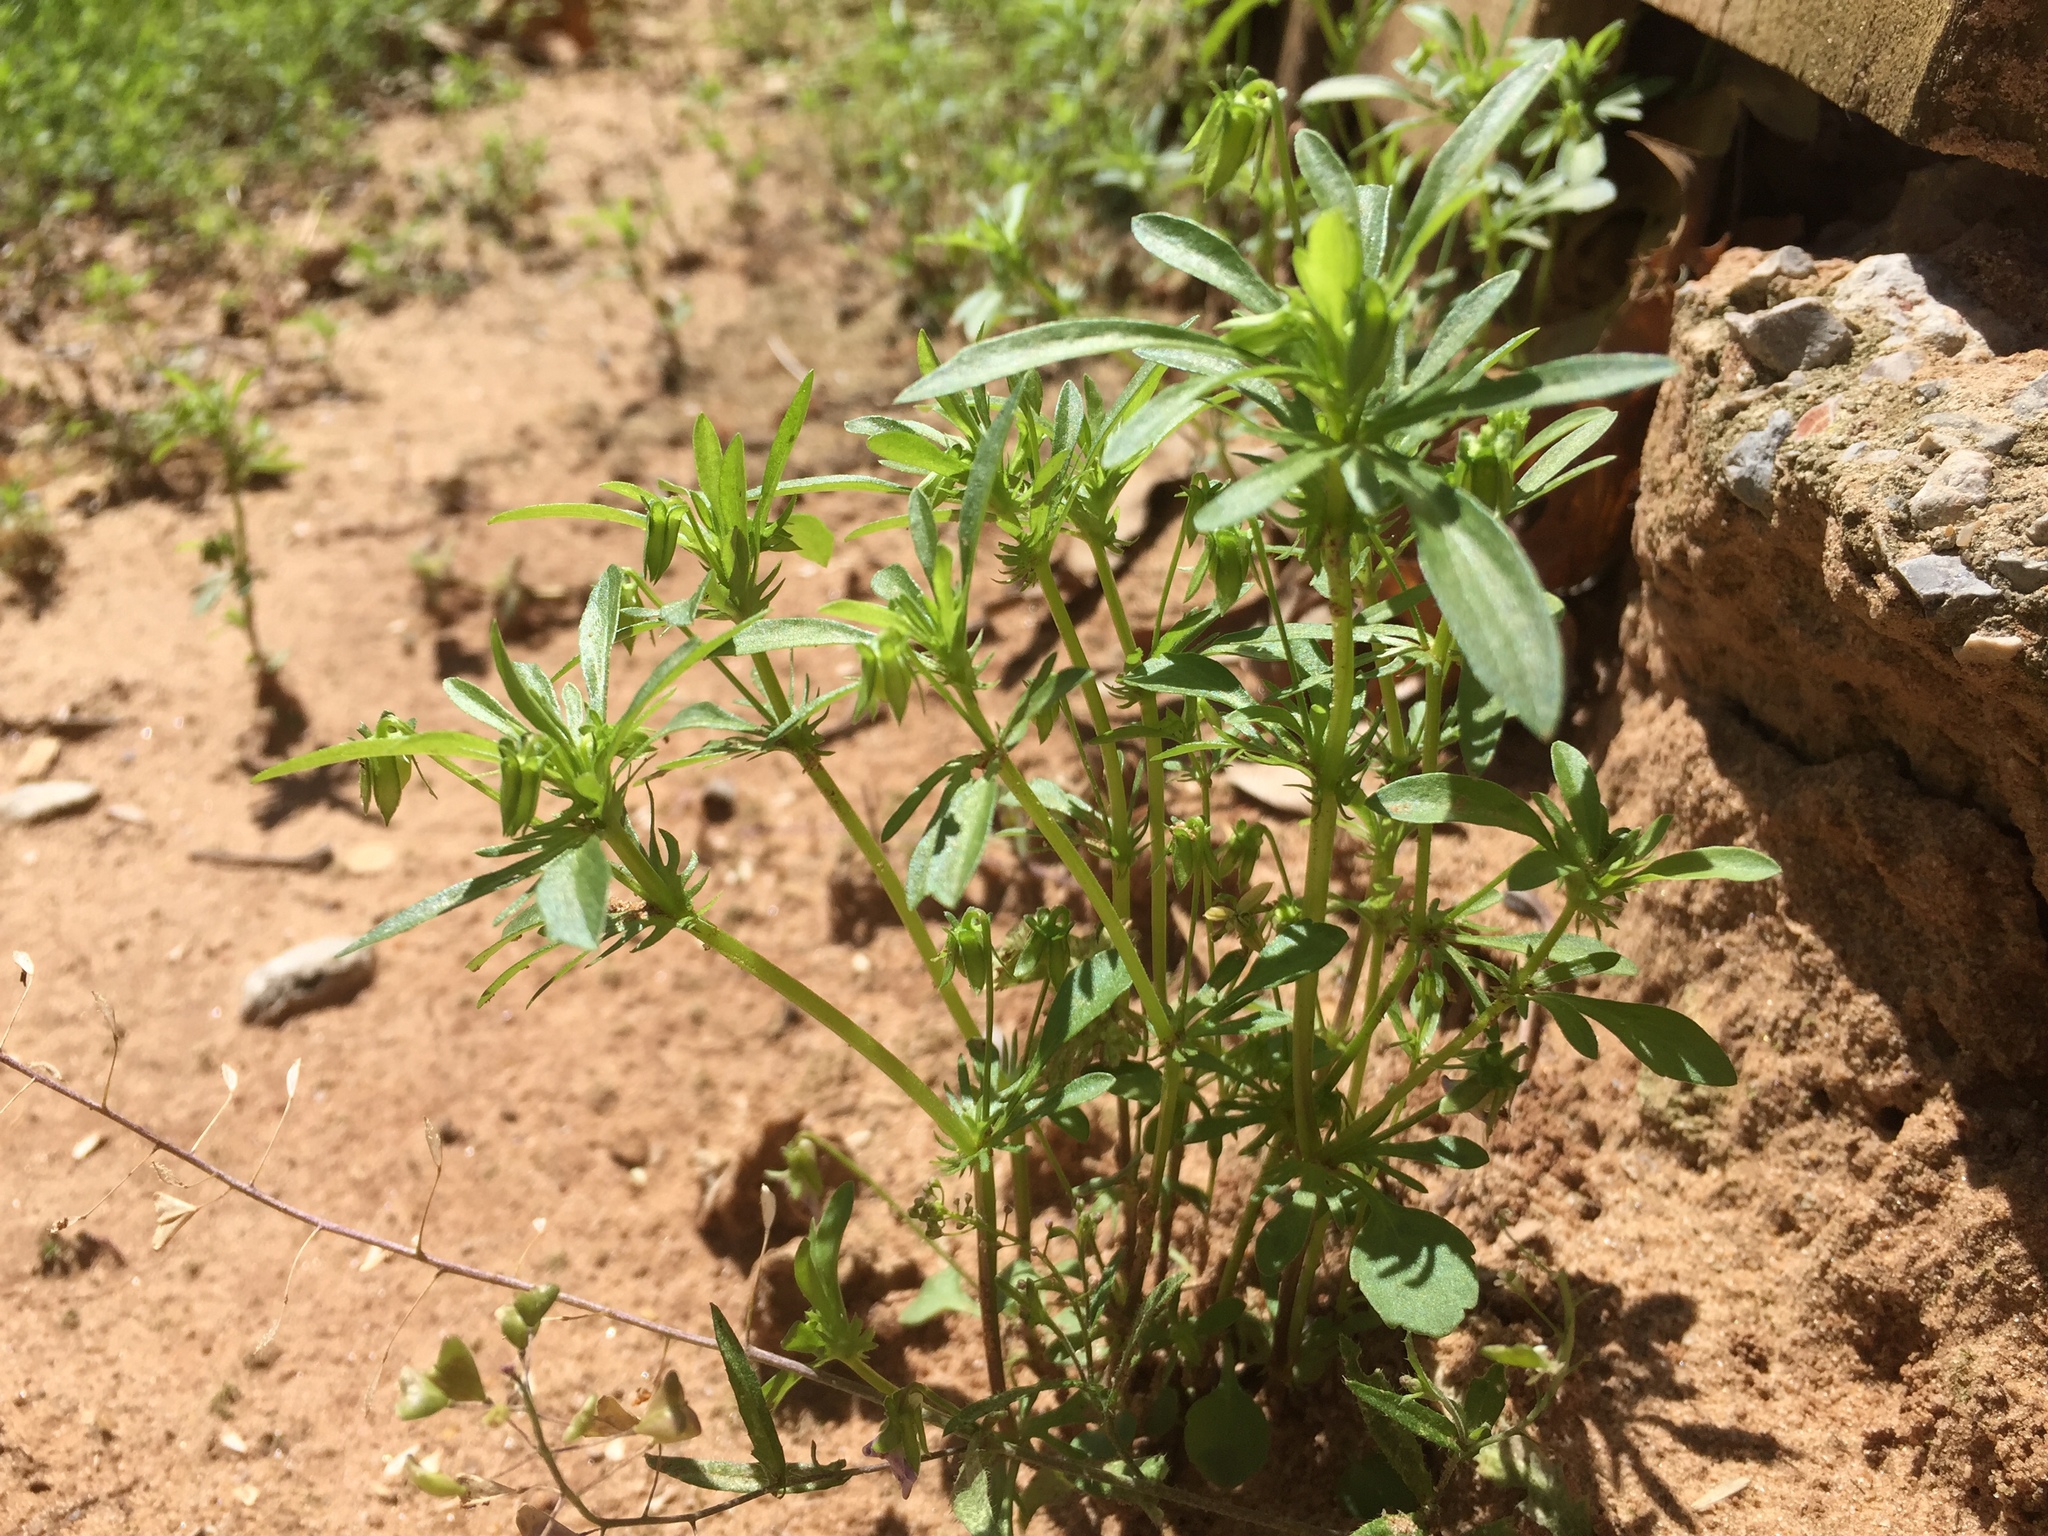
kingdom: Plantae
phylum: Tracheophyta
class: Magnoliopsida
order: Malpighiales
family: Violaceae
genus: Viola
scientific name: Viola rafinesquei
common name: American field pansy
